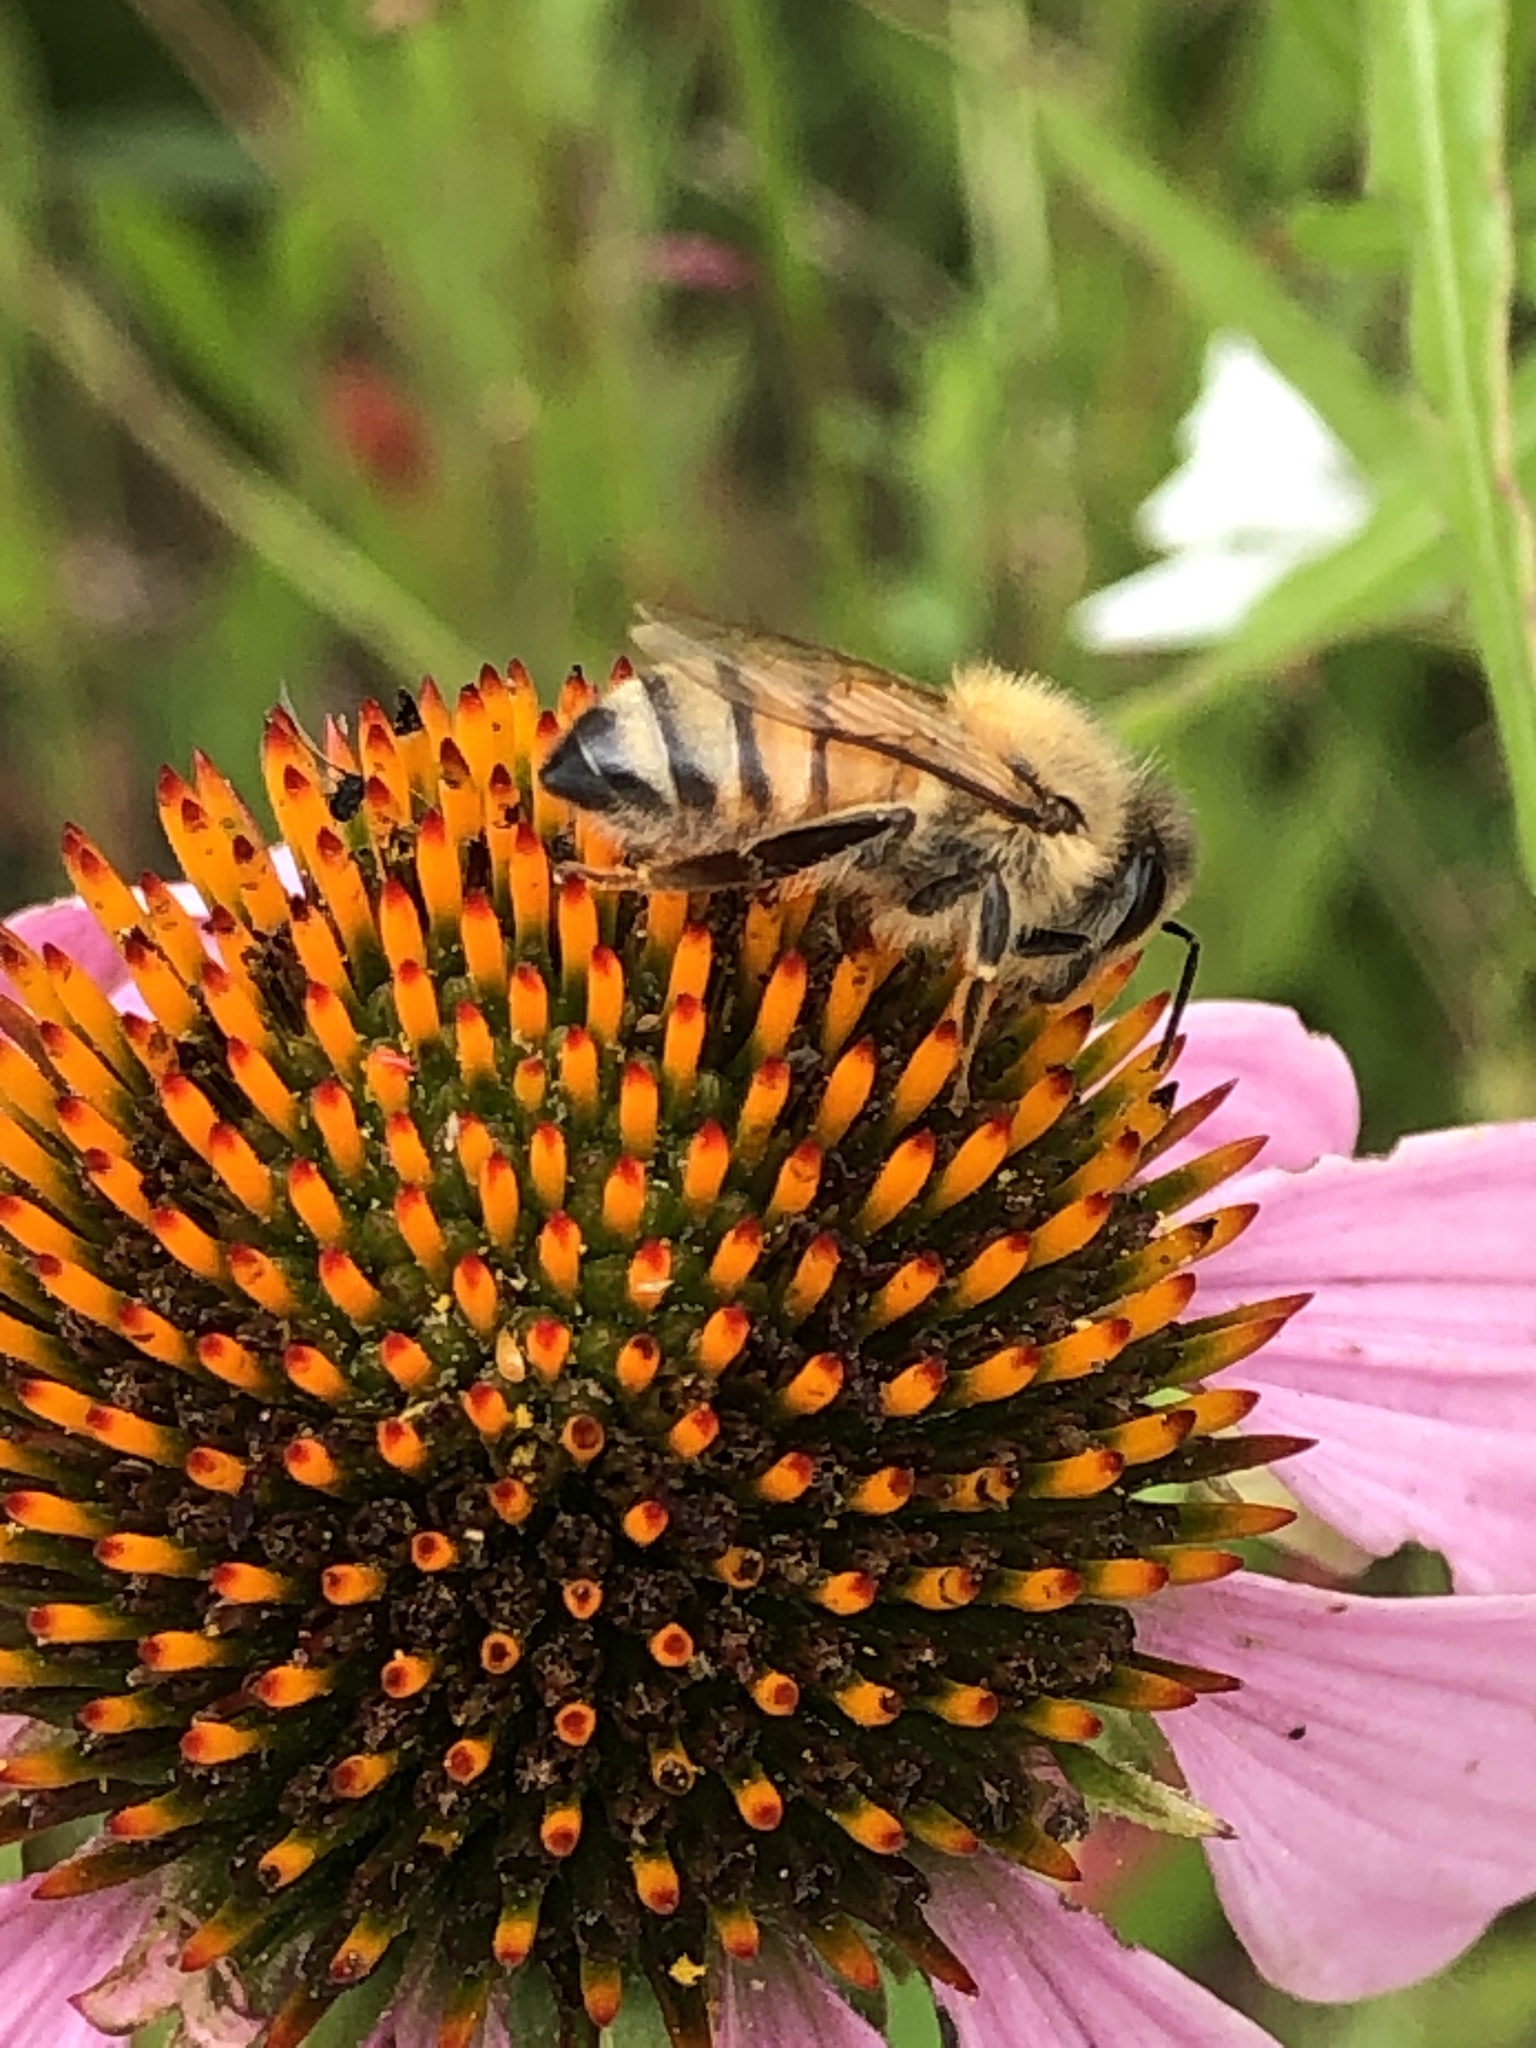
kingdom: Animalia
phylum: Arthropoda
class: Insecta
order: Hymenoptera
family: Apidae
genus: Apis
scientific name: Apis mellifera
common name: Honey bee
